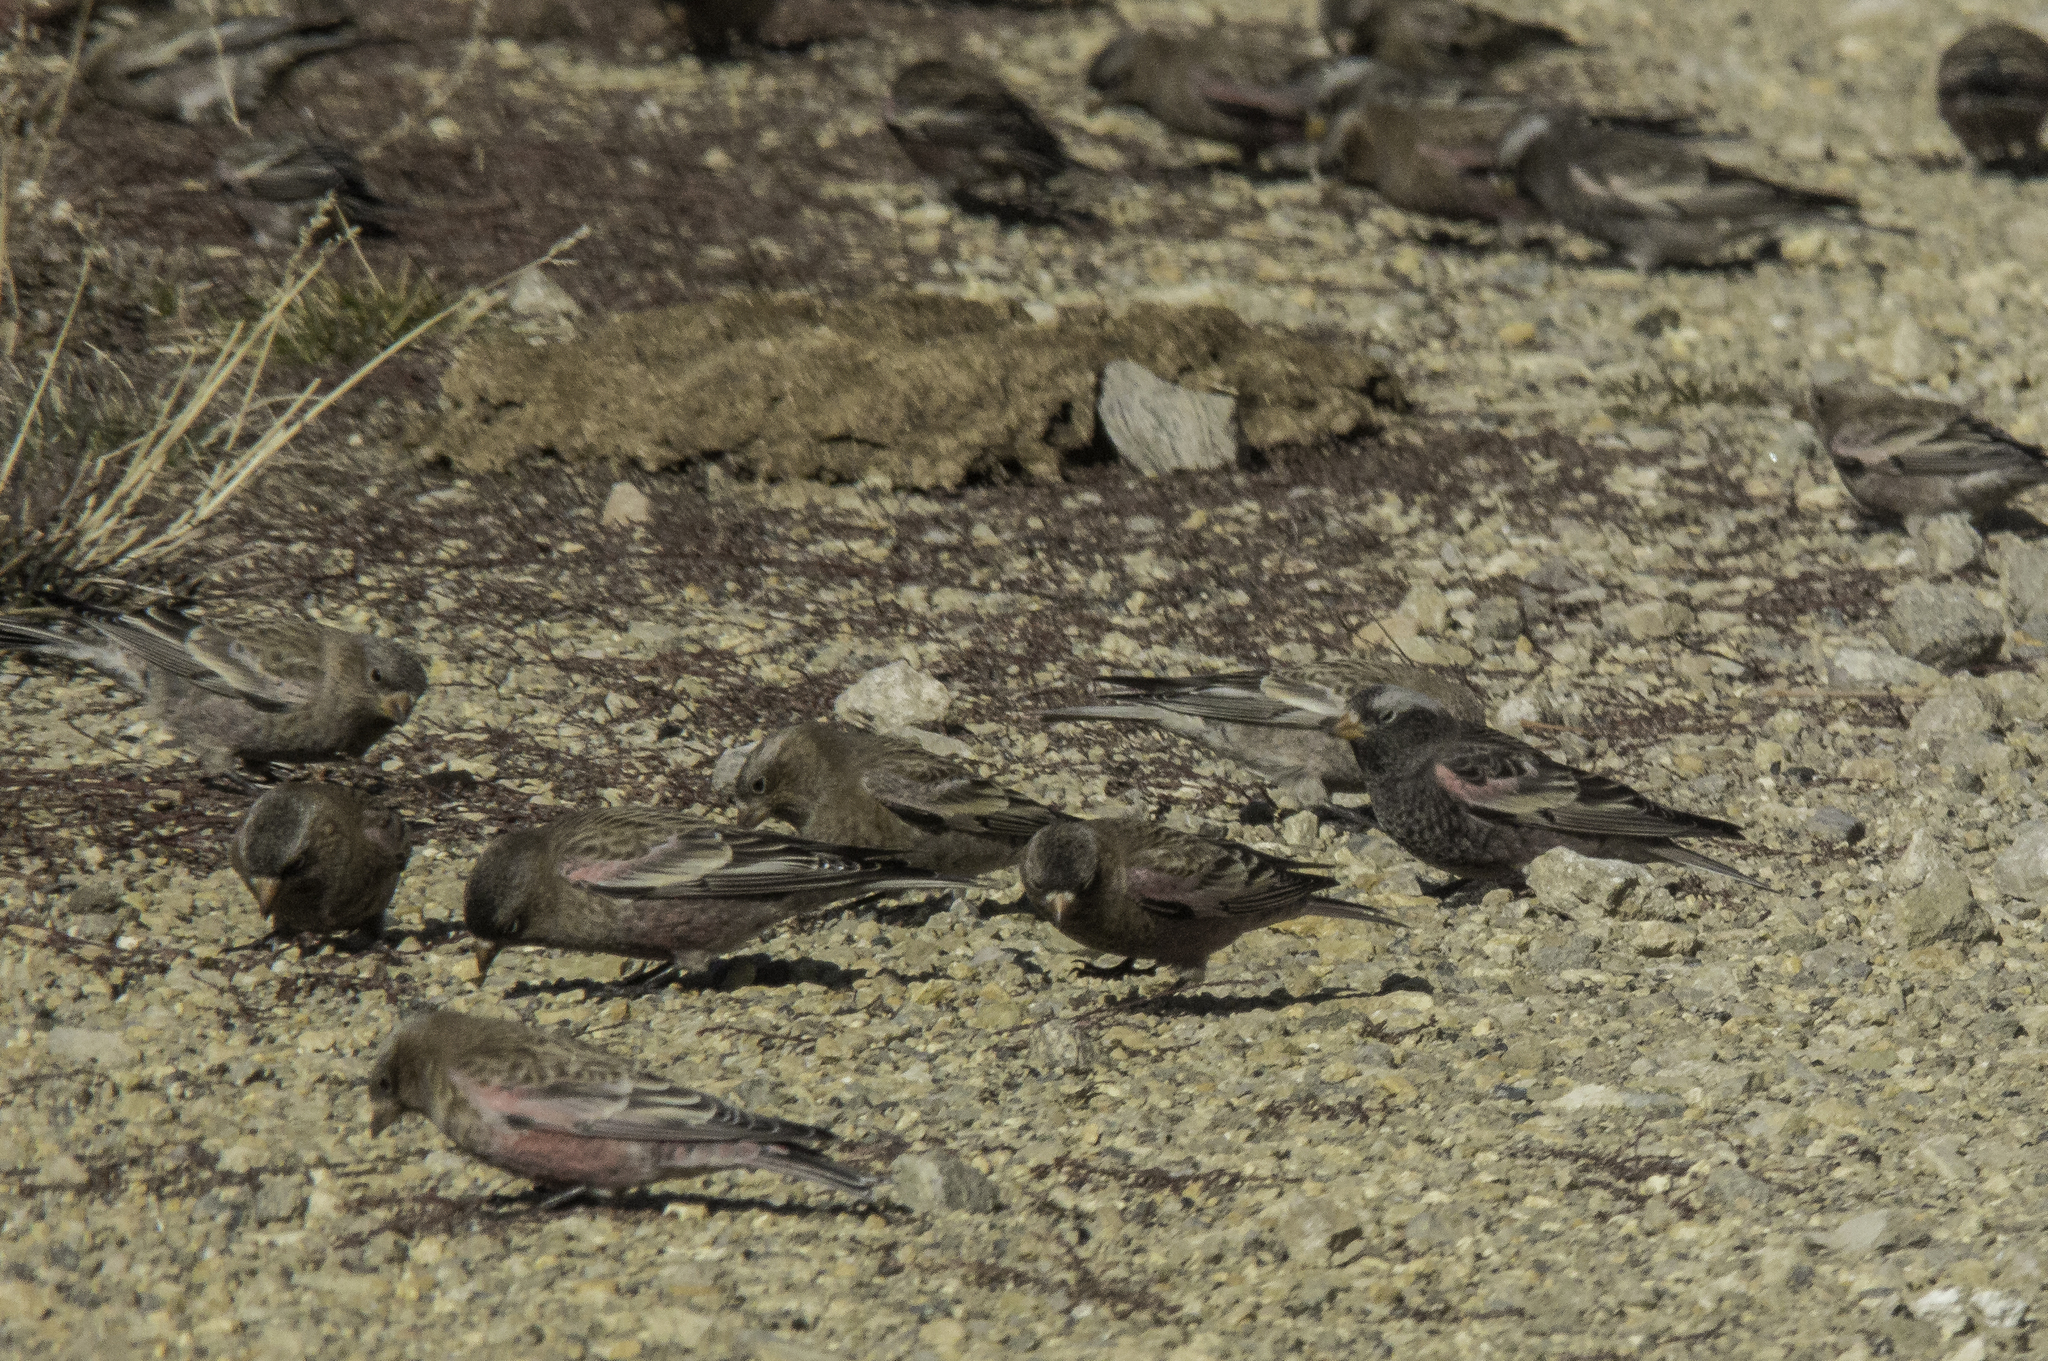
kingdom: Animalia
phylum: Chordata
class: Aves
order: Passeriformes
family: Fringillidae
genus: Leucosticte
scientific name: Leucosticte atrata
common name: Black rosy-finch
